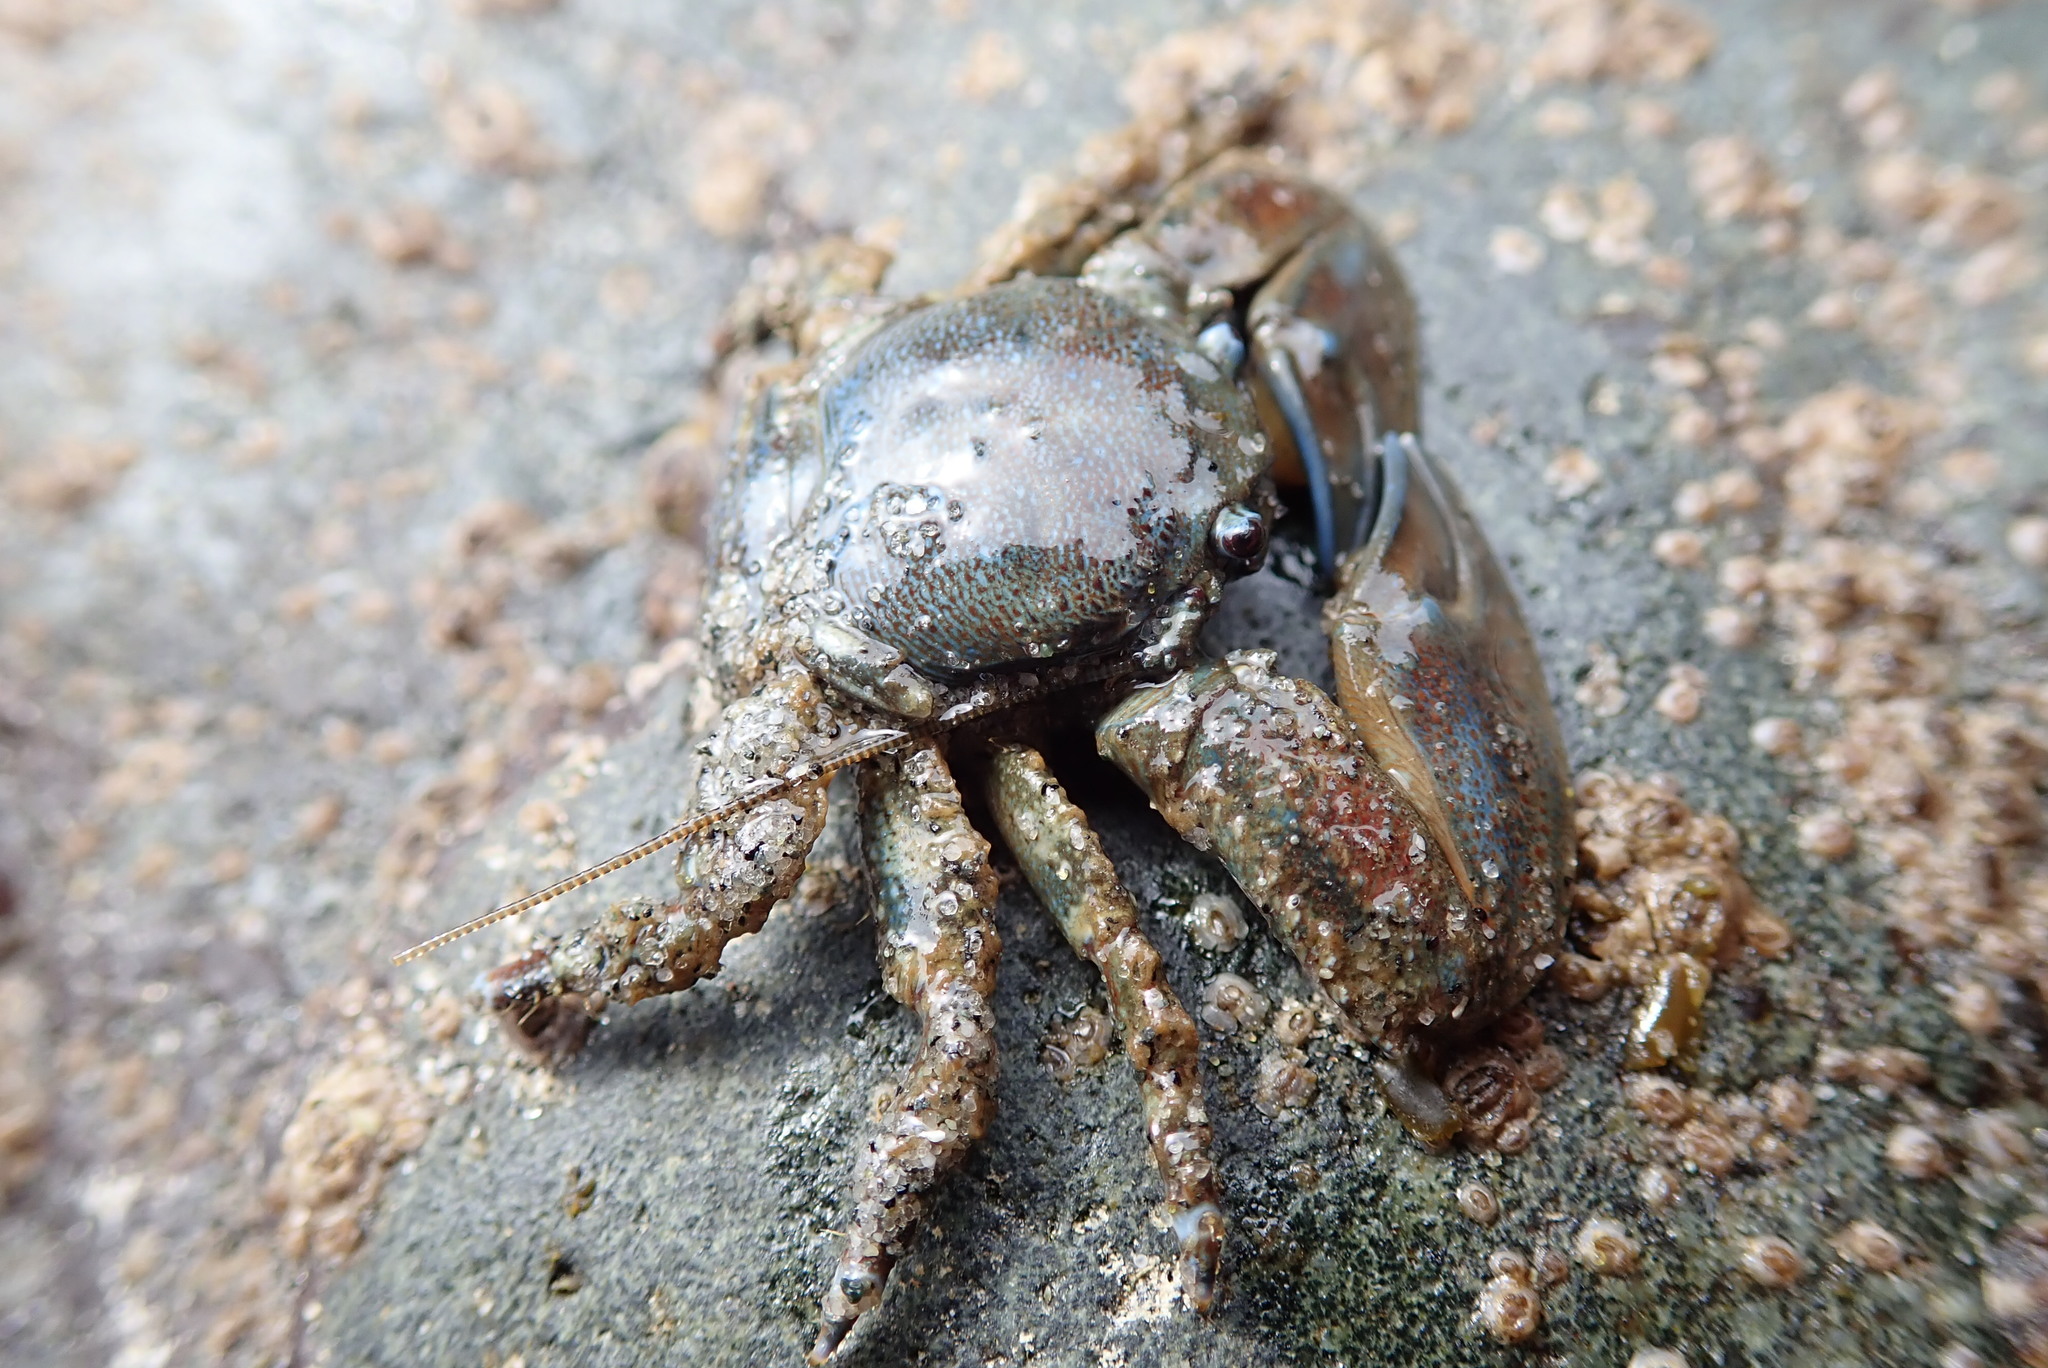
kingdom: Animalia
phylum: Arthropoda
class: Malacostraca
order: Decapoda
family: Porcellanidae
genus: Petrolisthes
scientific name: Petrolisthes eriomerus
